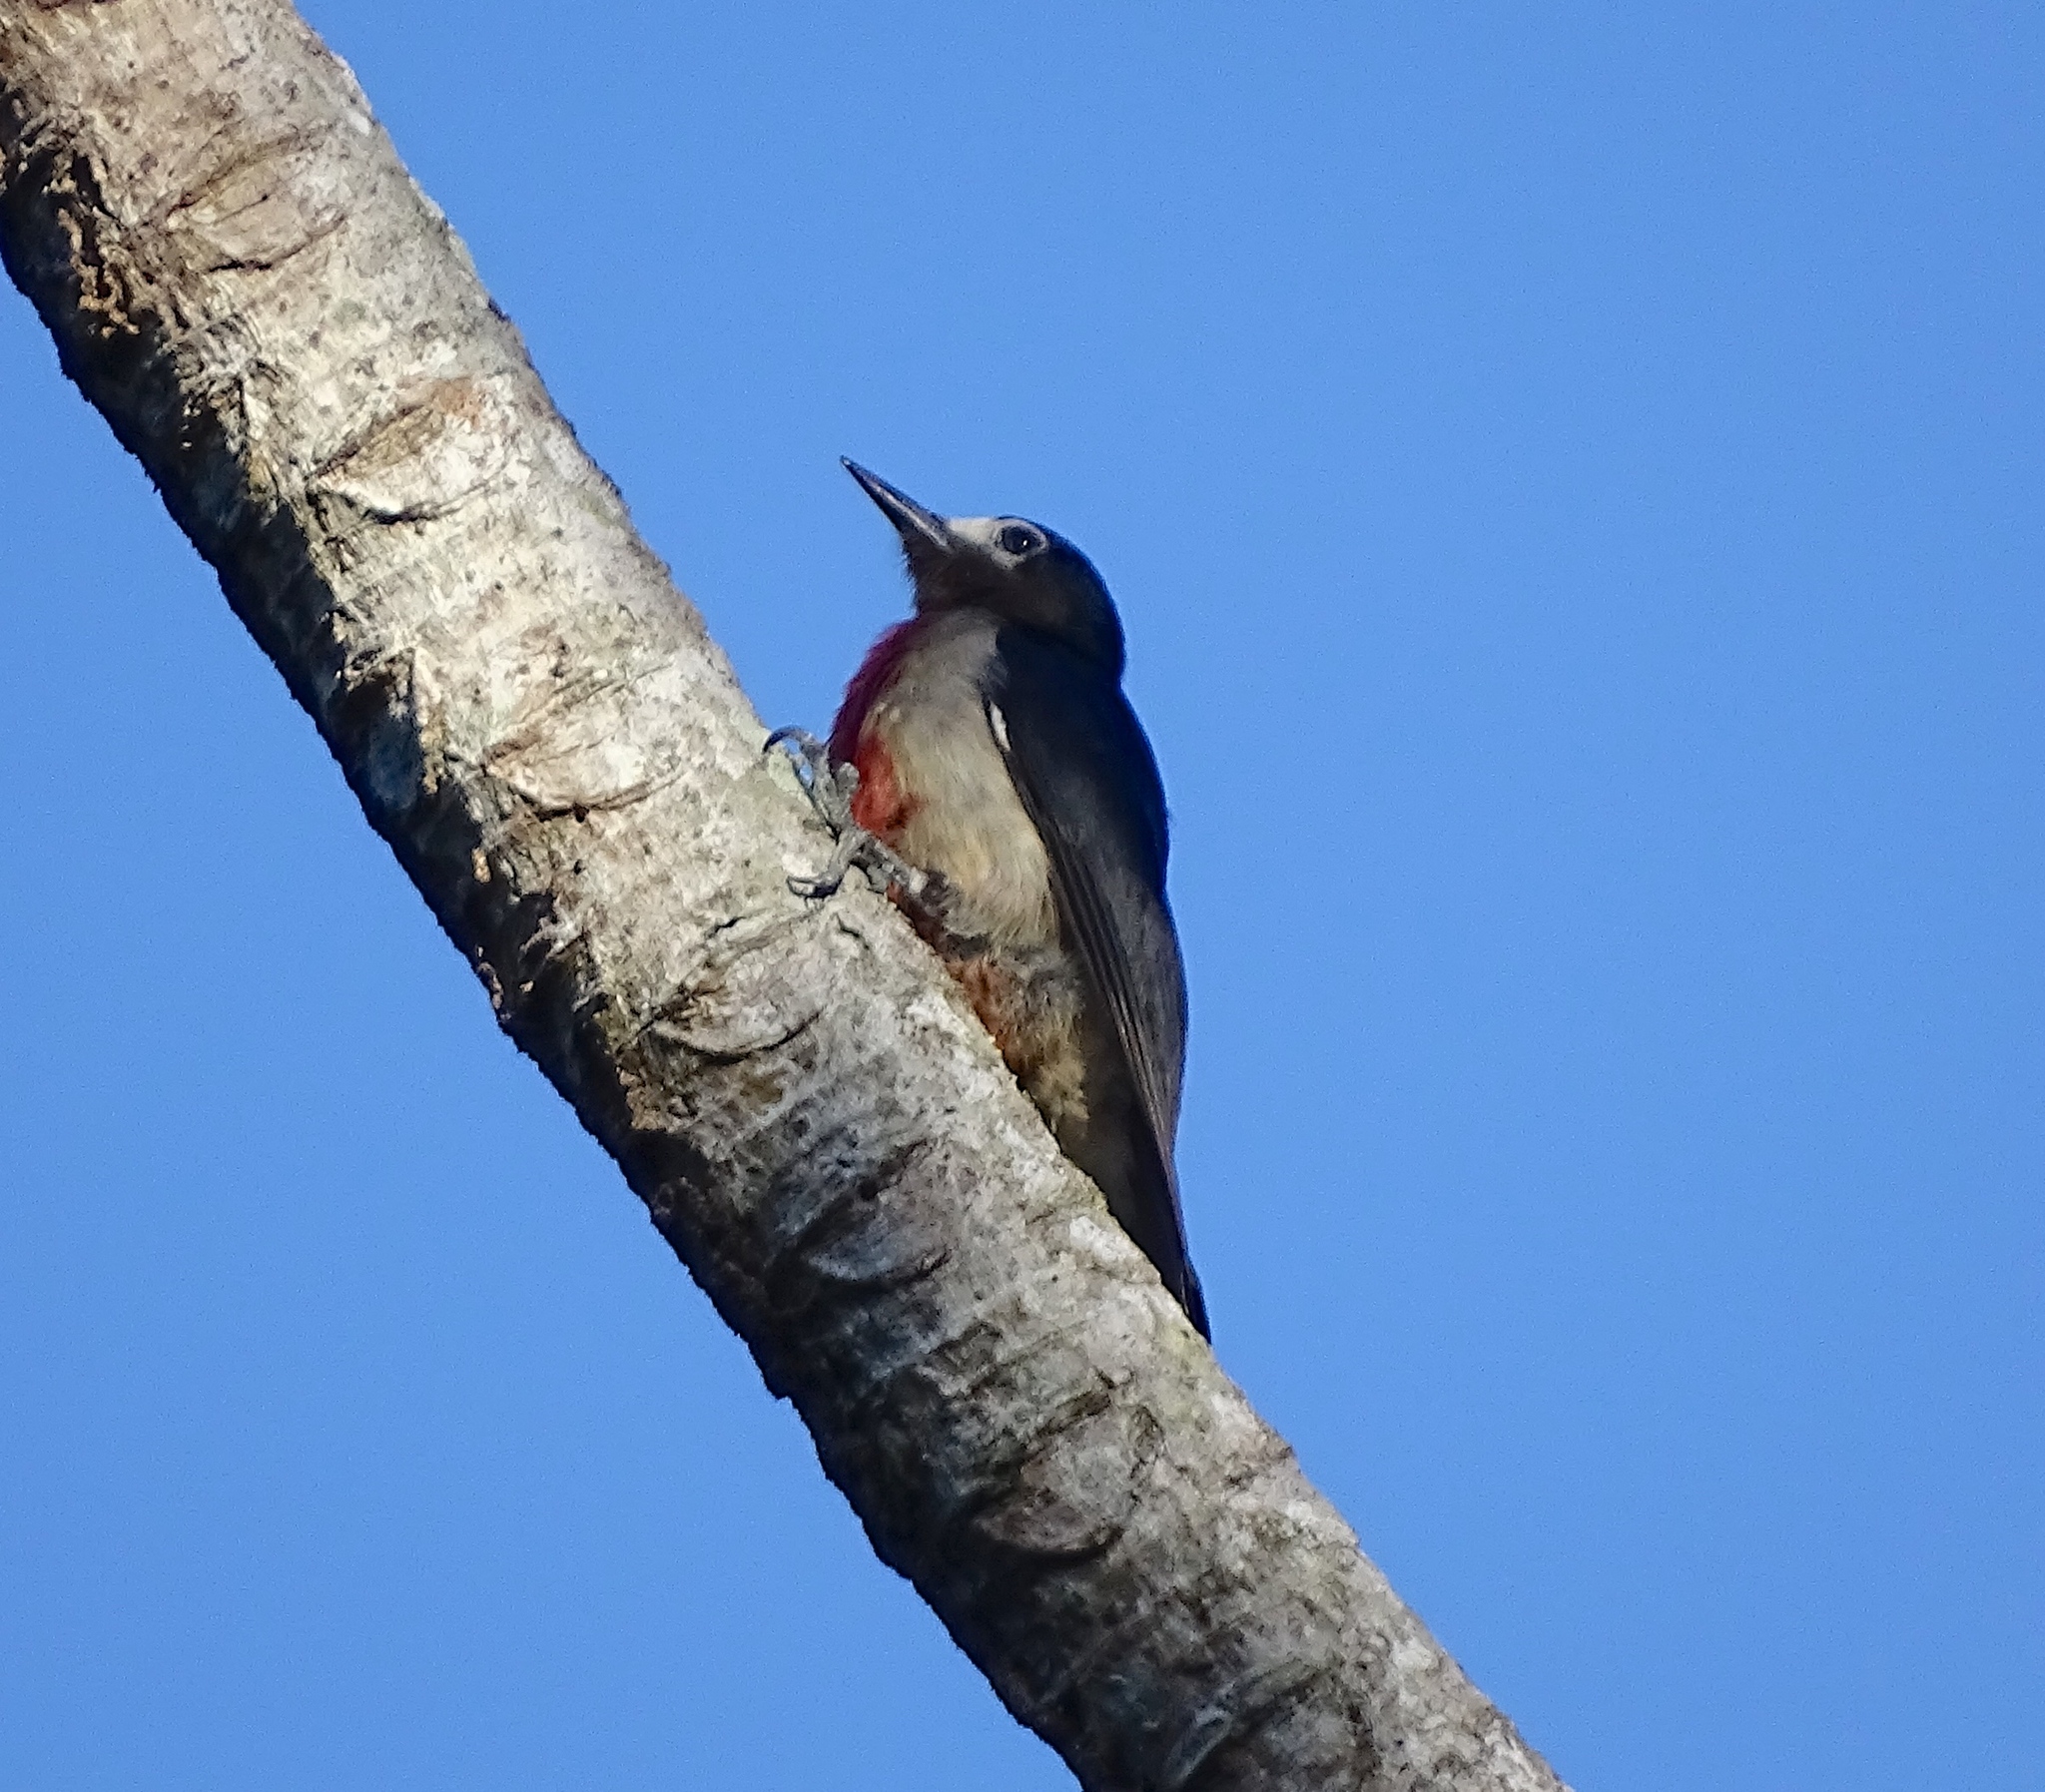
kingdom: Animalia
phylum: Chordata
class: Aves
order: Piciformes
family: Picidae
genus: Melanerpes
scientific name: Melanerpes portoricensis
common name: Puerto rican woodpecker
